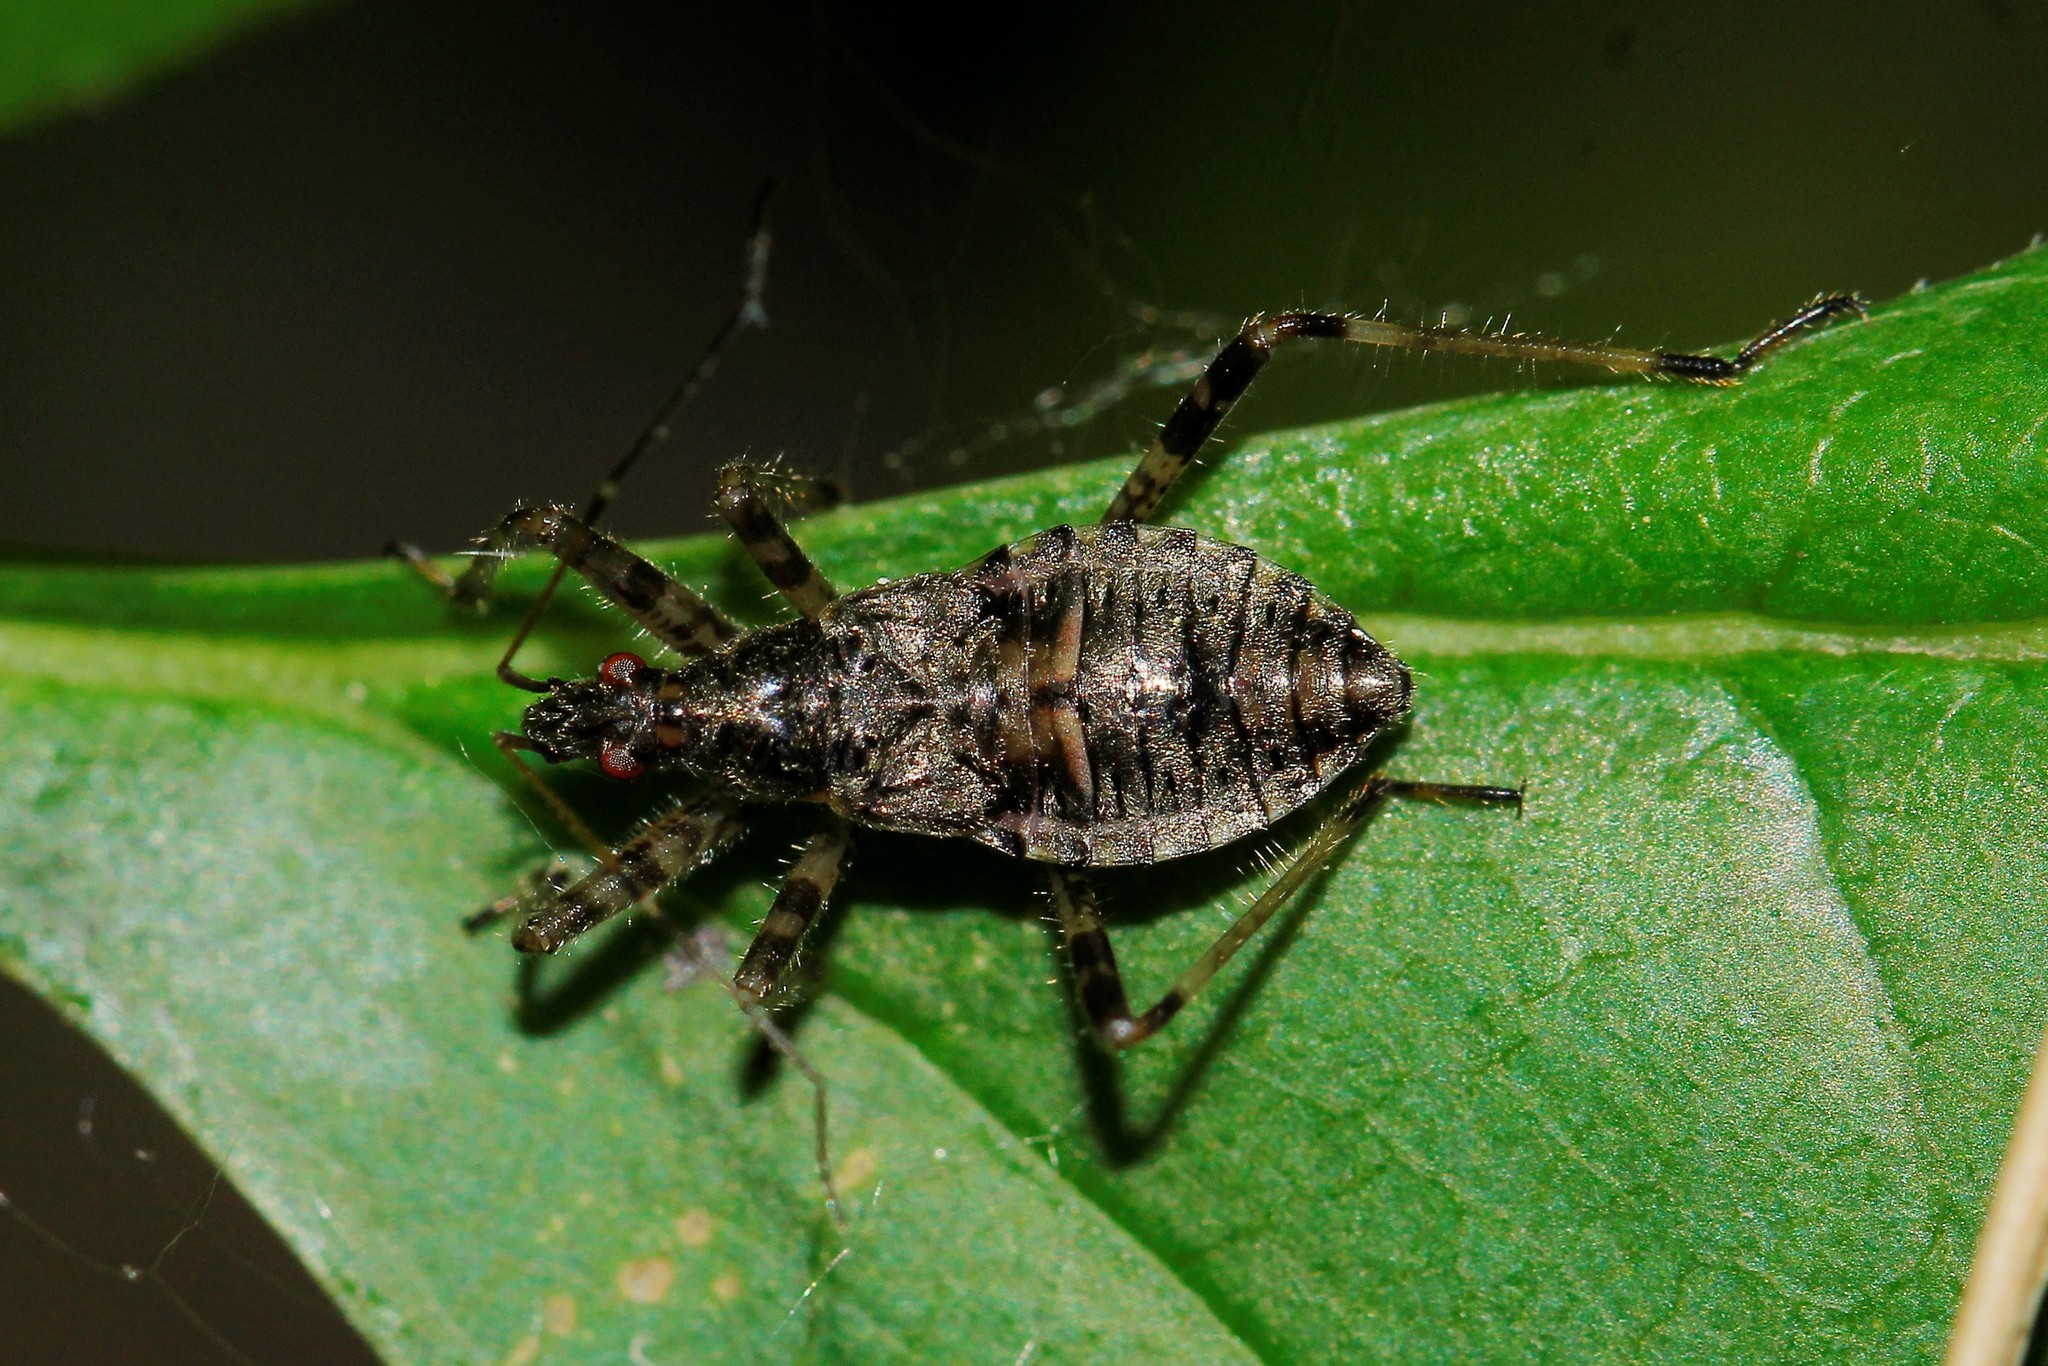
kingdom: Animalia
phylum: Arthropoda
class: Insecta
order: Hemiptera
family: Nabidae
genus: Himacerus
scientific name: Himacerus apterus
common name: Tree damsel bug
